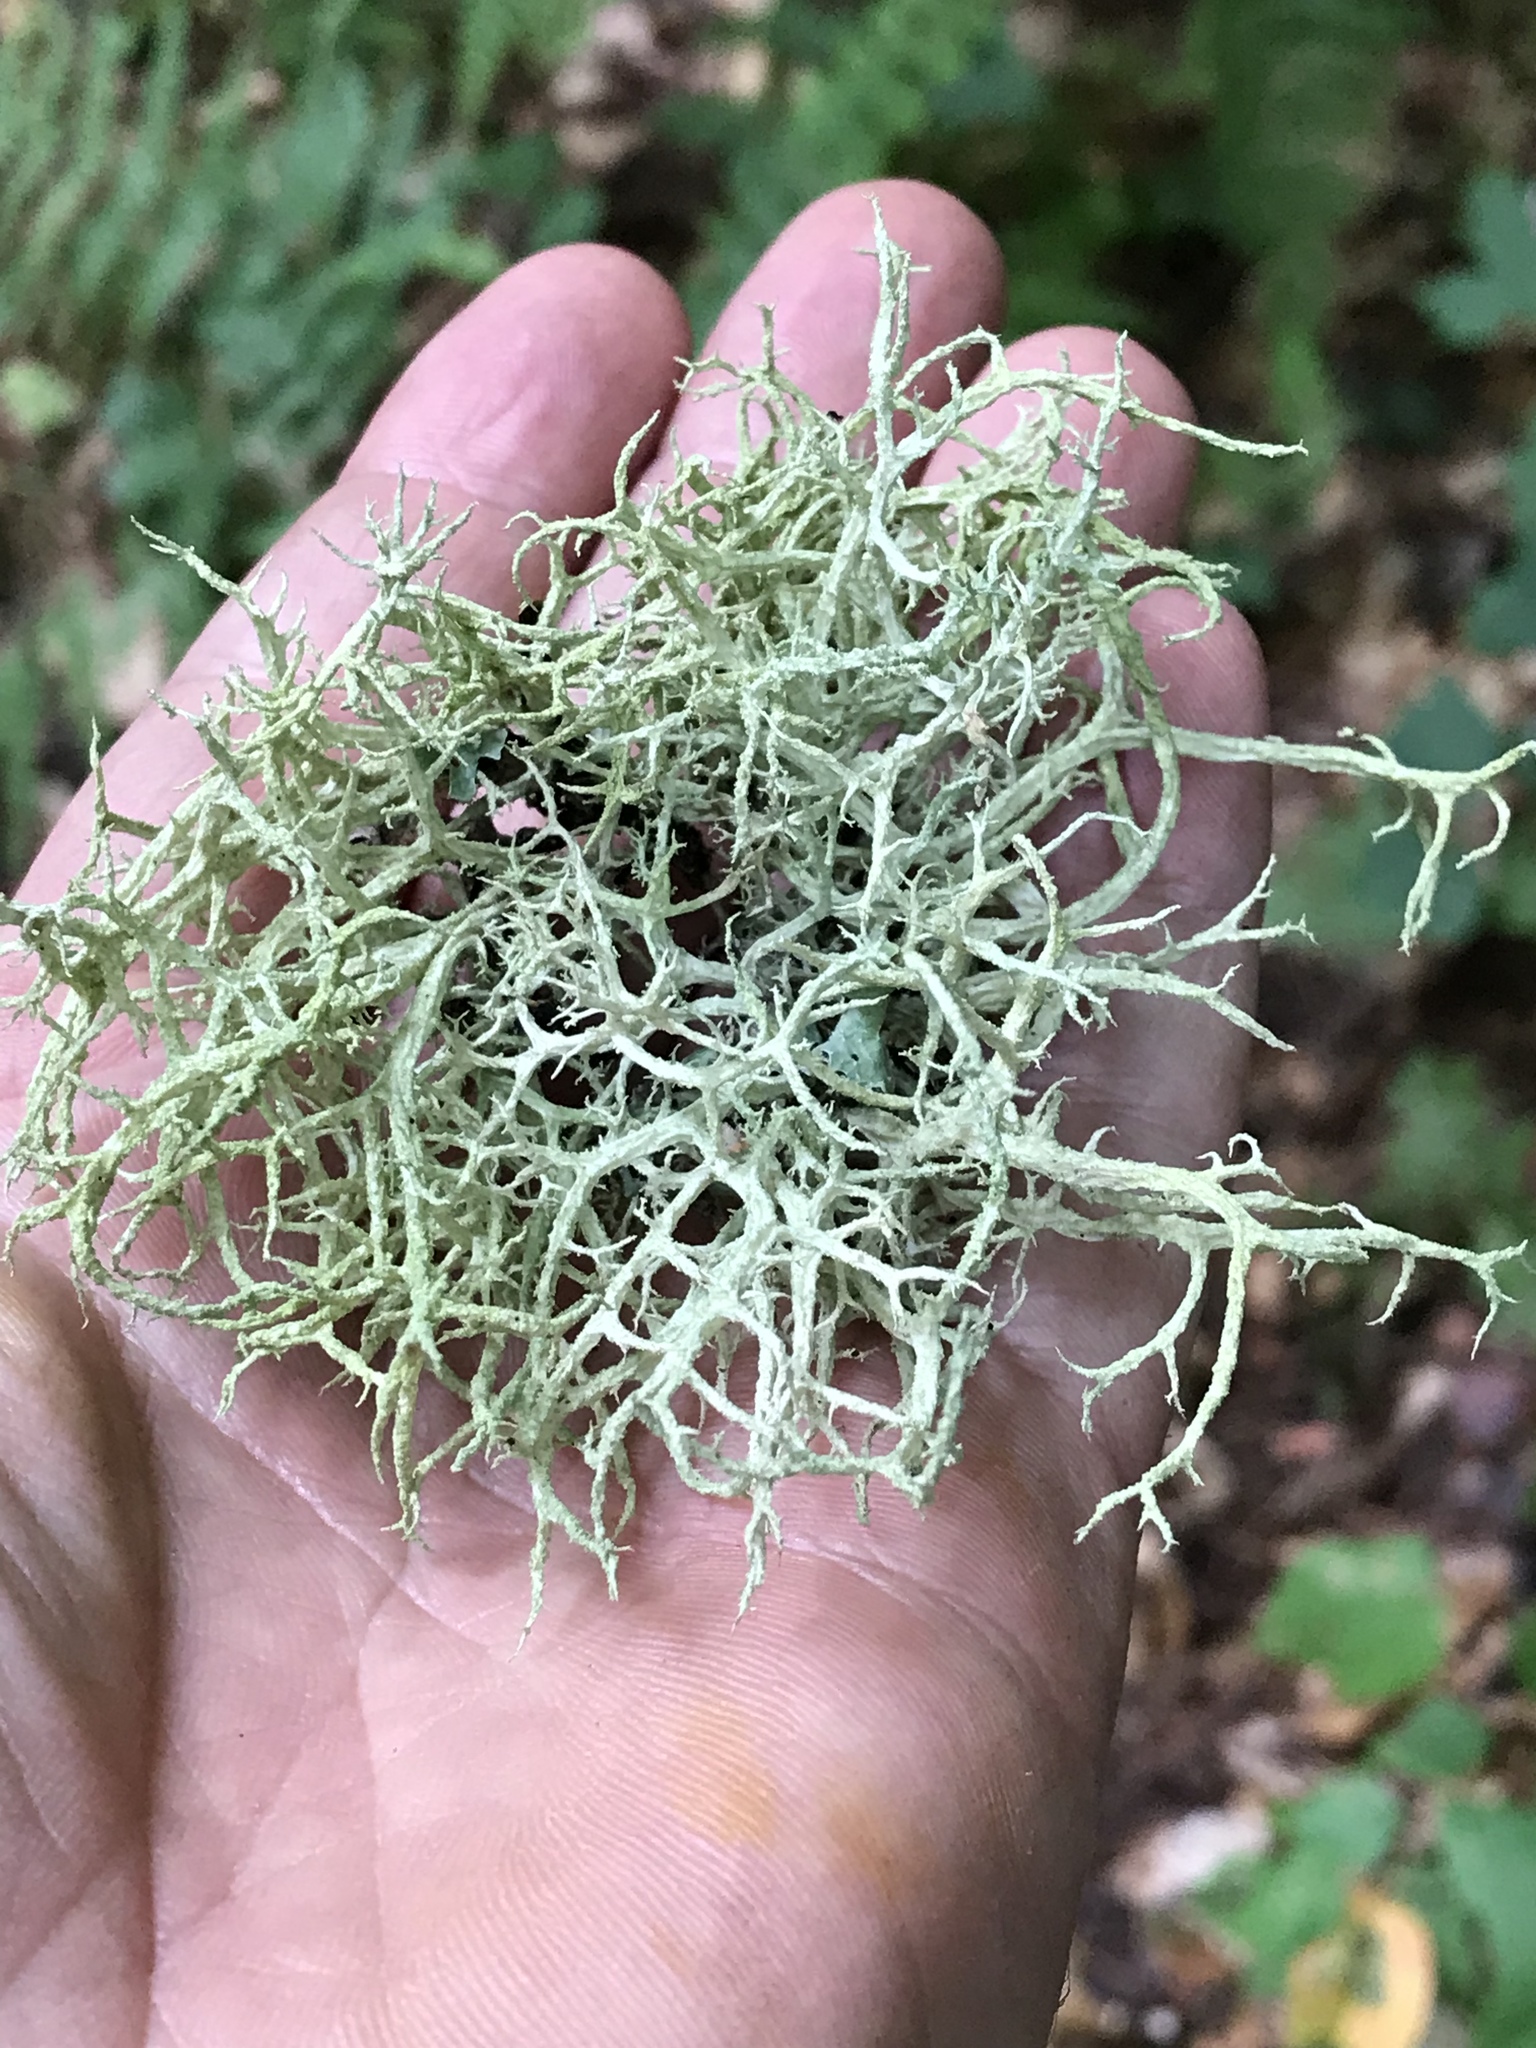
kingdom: Fungi
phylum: Ascomycota
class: Lecanoromycetes
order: Lecanorales
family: Parmeliaceae
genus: Evernia
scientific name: Evernia mesomorpha
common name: Boreal oak moss lichen
